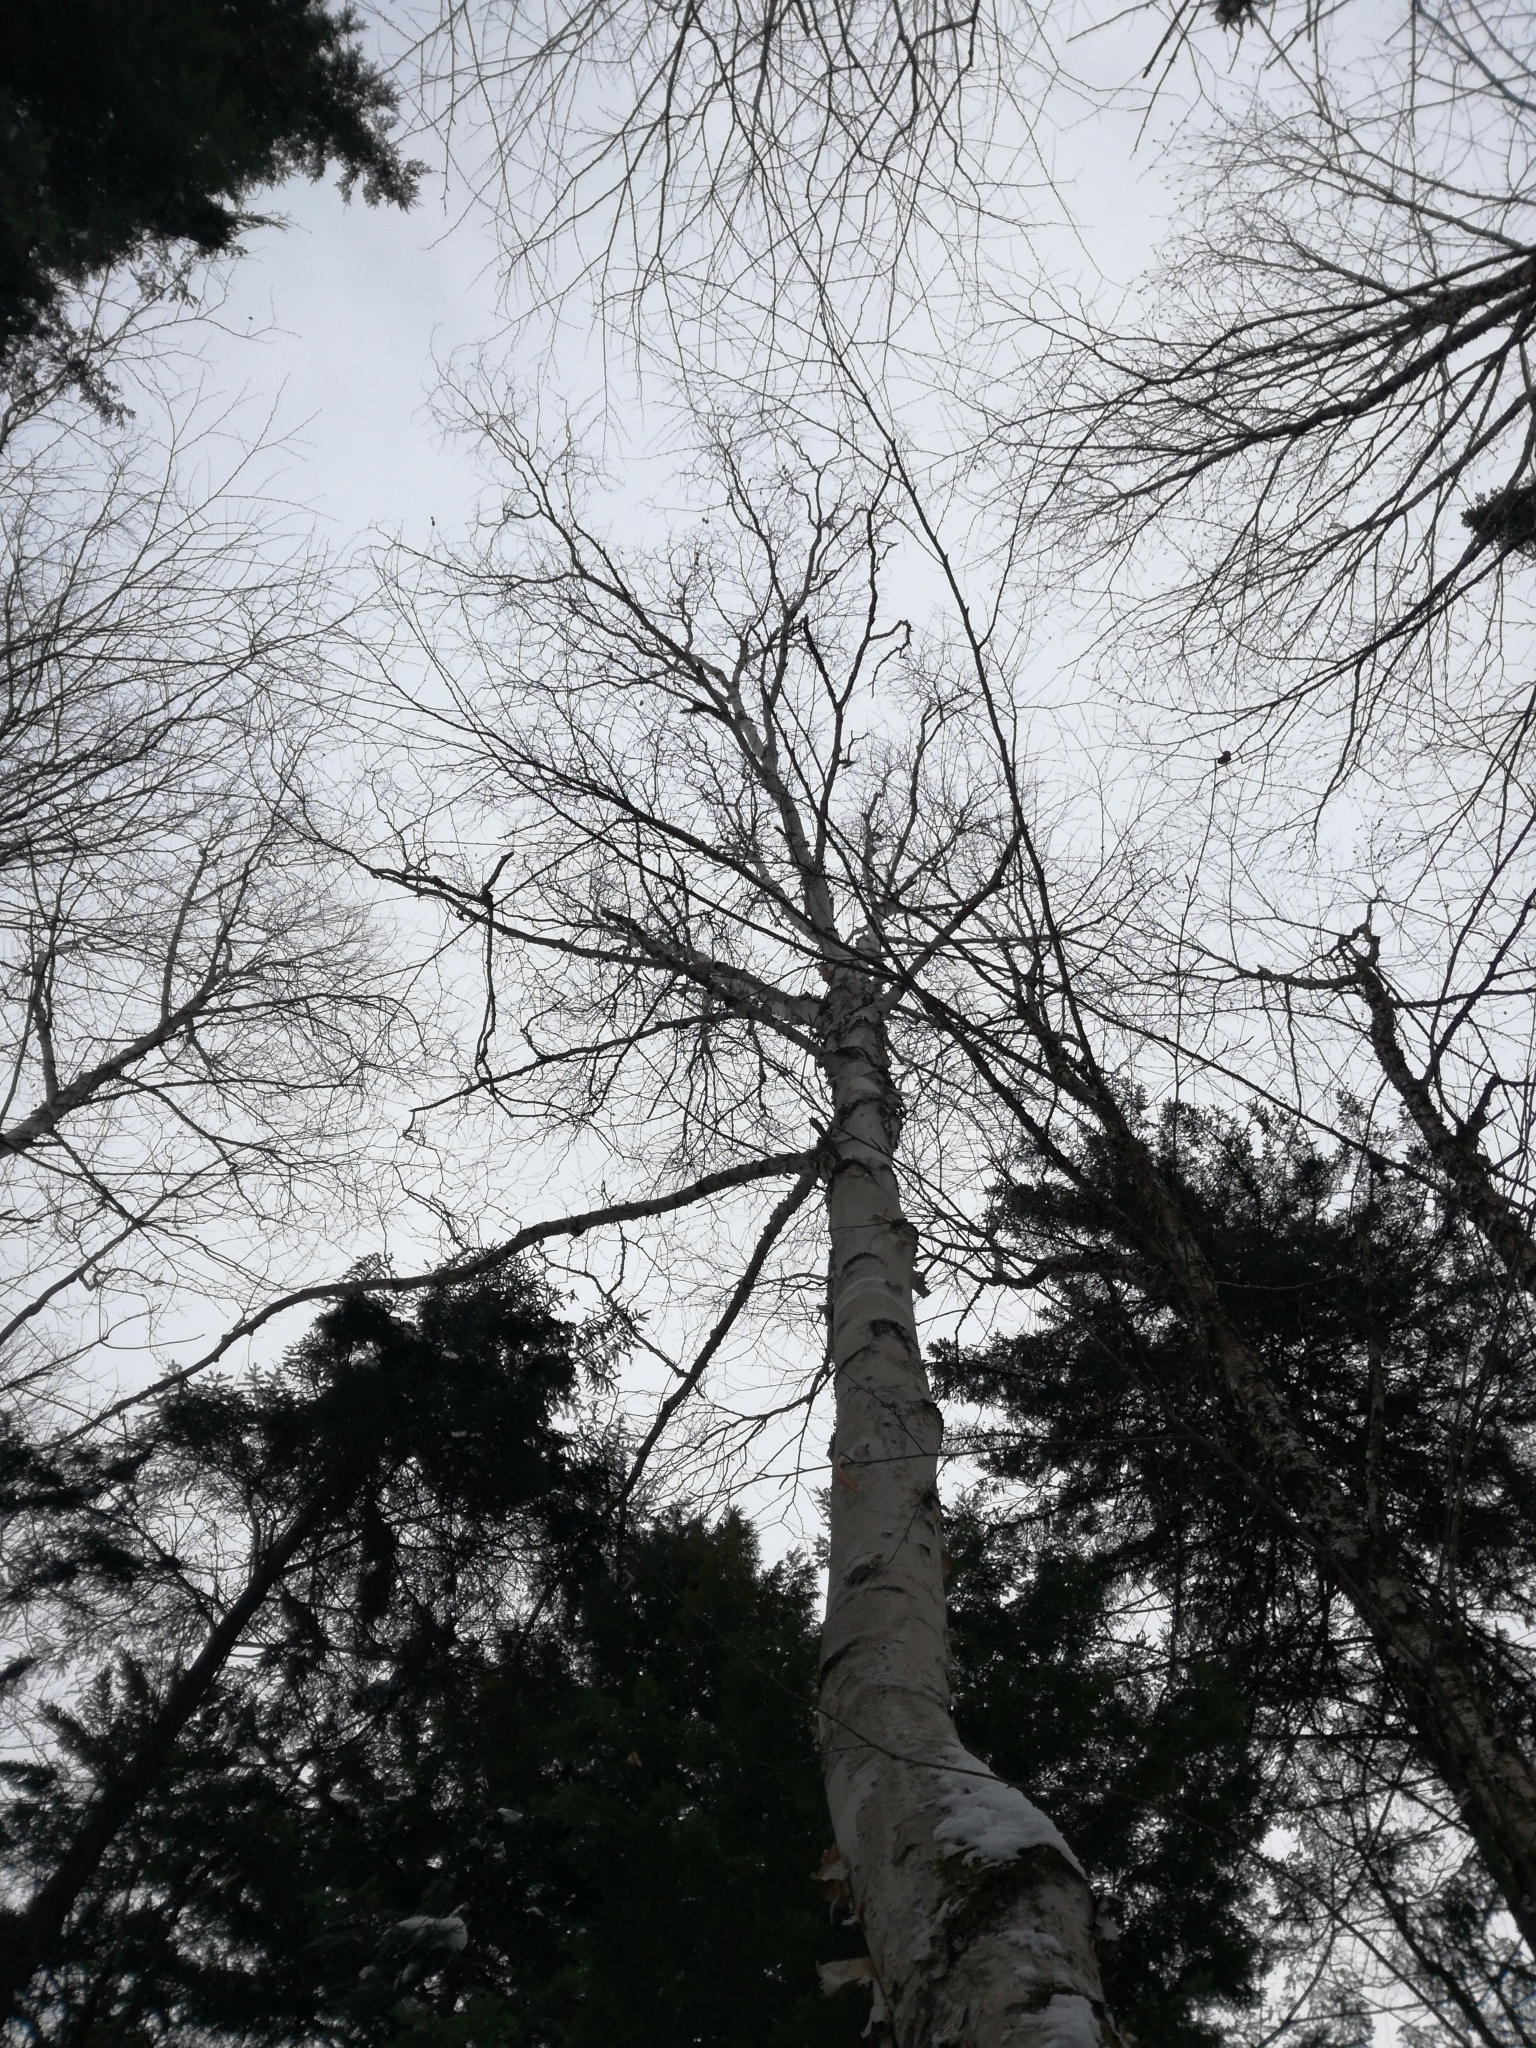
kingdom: Plantae
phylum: Tracheophyta
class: Magnoliopsida
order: Fagales
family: Betulaceae
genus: Betula
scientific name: Betula papyrifera
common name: Paper birch
